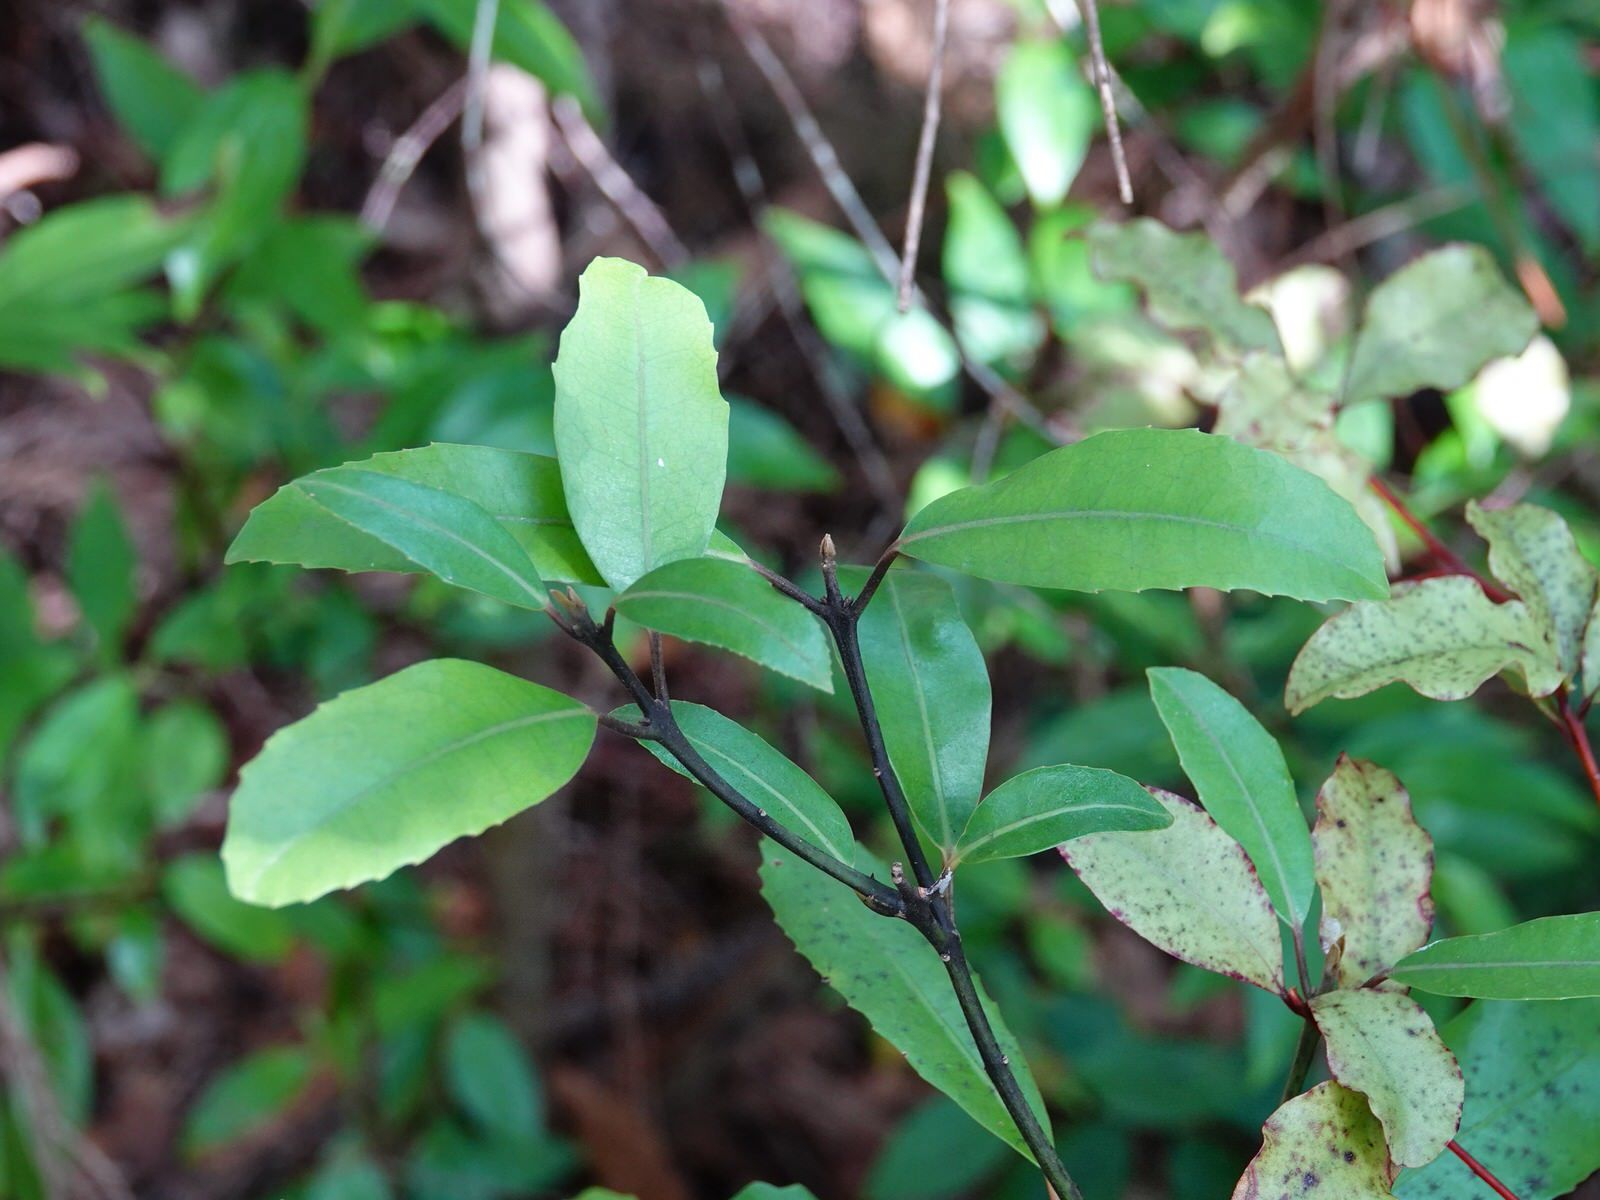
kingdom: Plantae
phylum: Tracheophyta
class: Magnoliopsida
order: Laurales
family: Monimiaceae
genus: Hedycarya
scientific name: Hedycarya arborea
